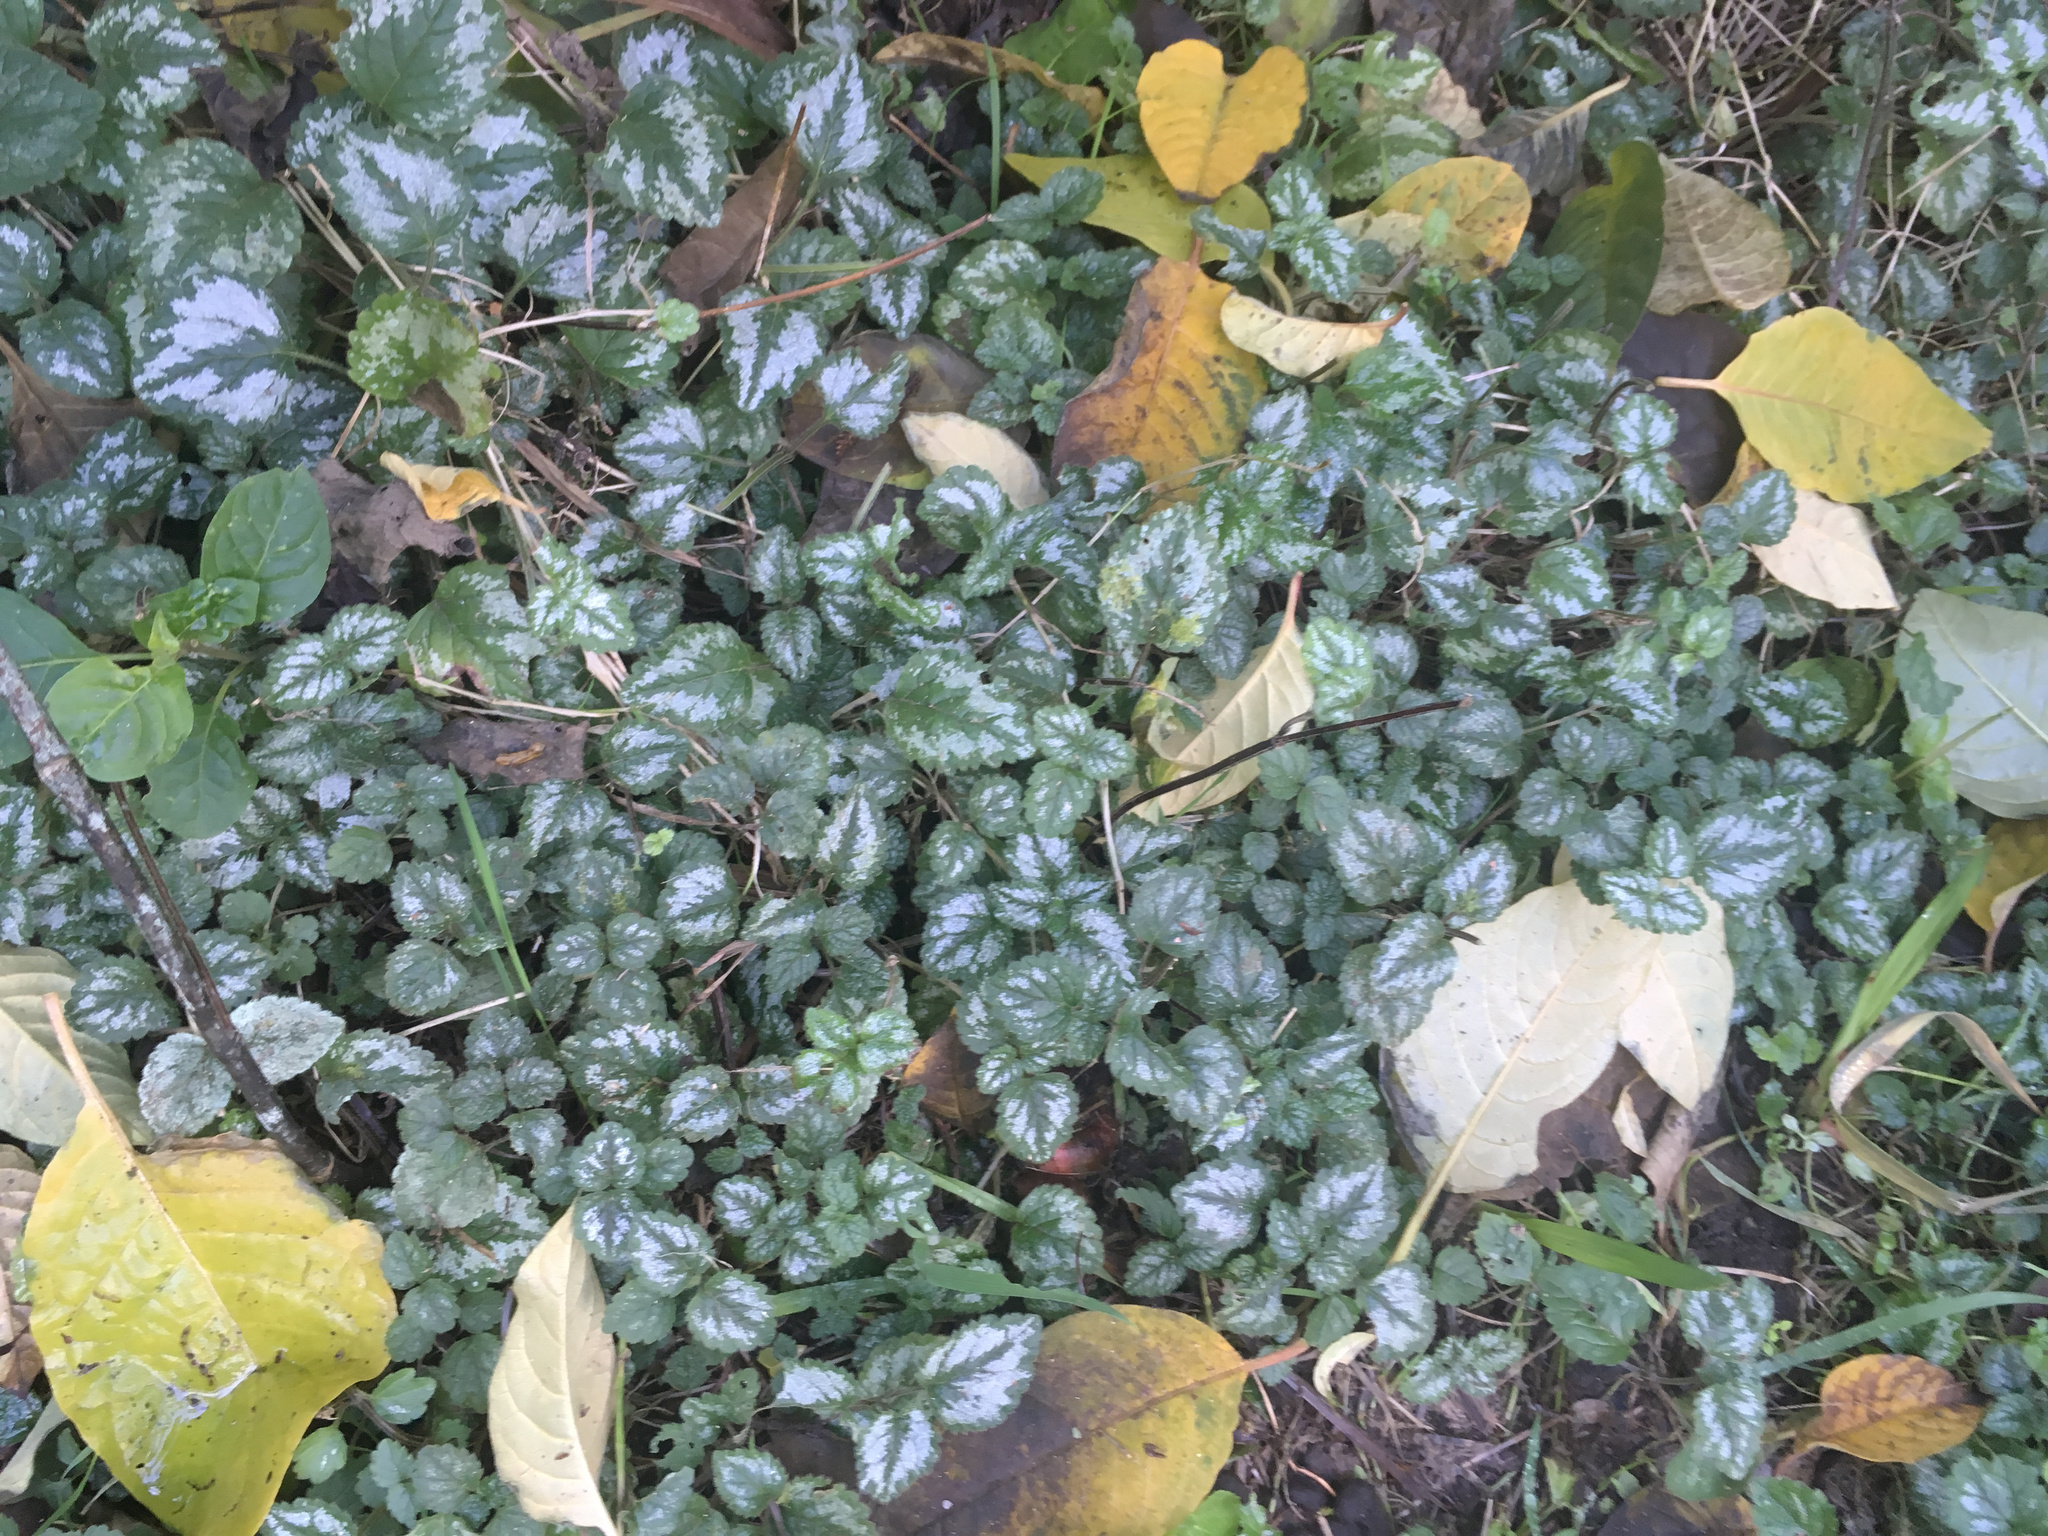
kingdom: Plantae
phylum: Tracheophyta
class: Magnoliopsida
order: Lamiales
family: Lamiaceae
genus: Lamium
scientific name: Lamium galeobdolon
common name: Yellow archangel
